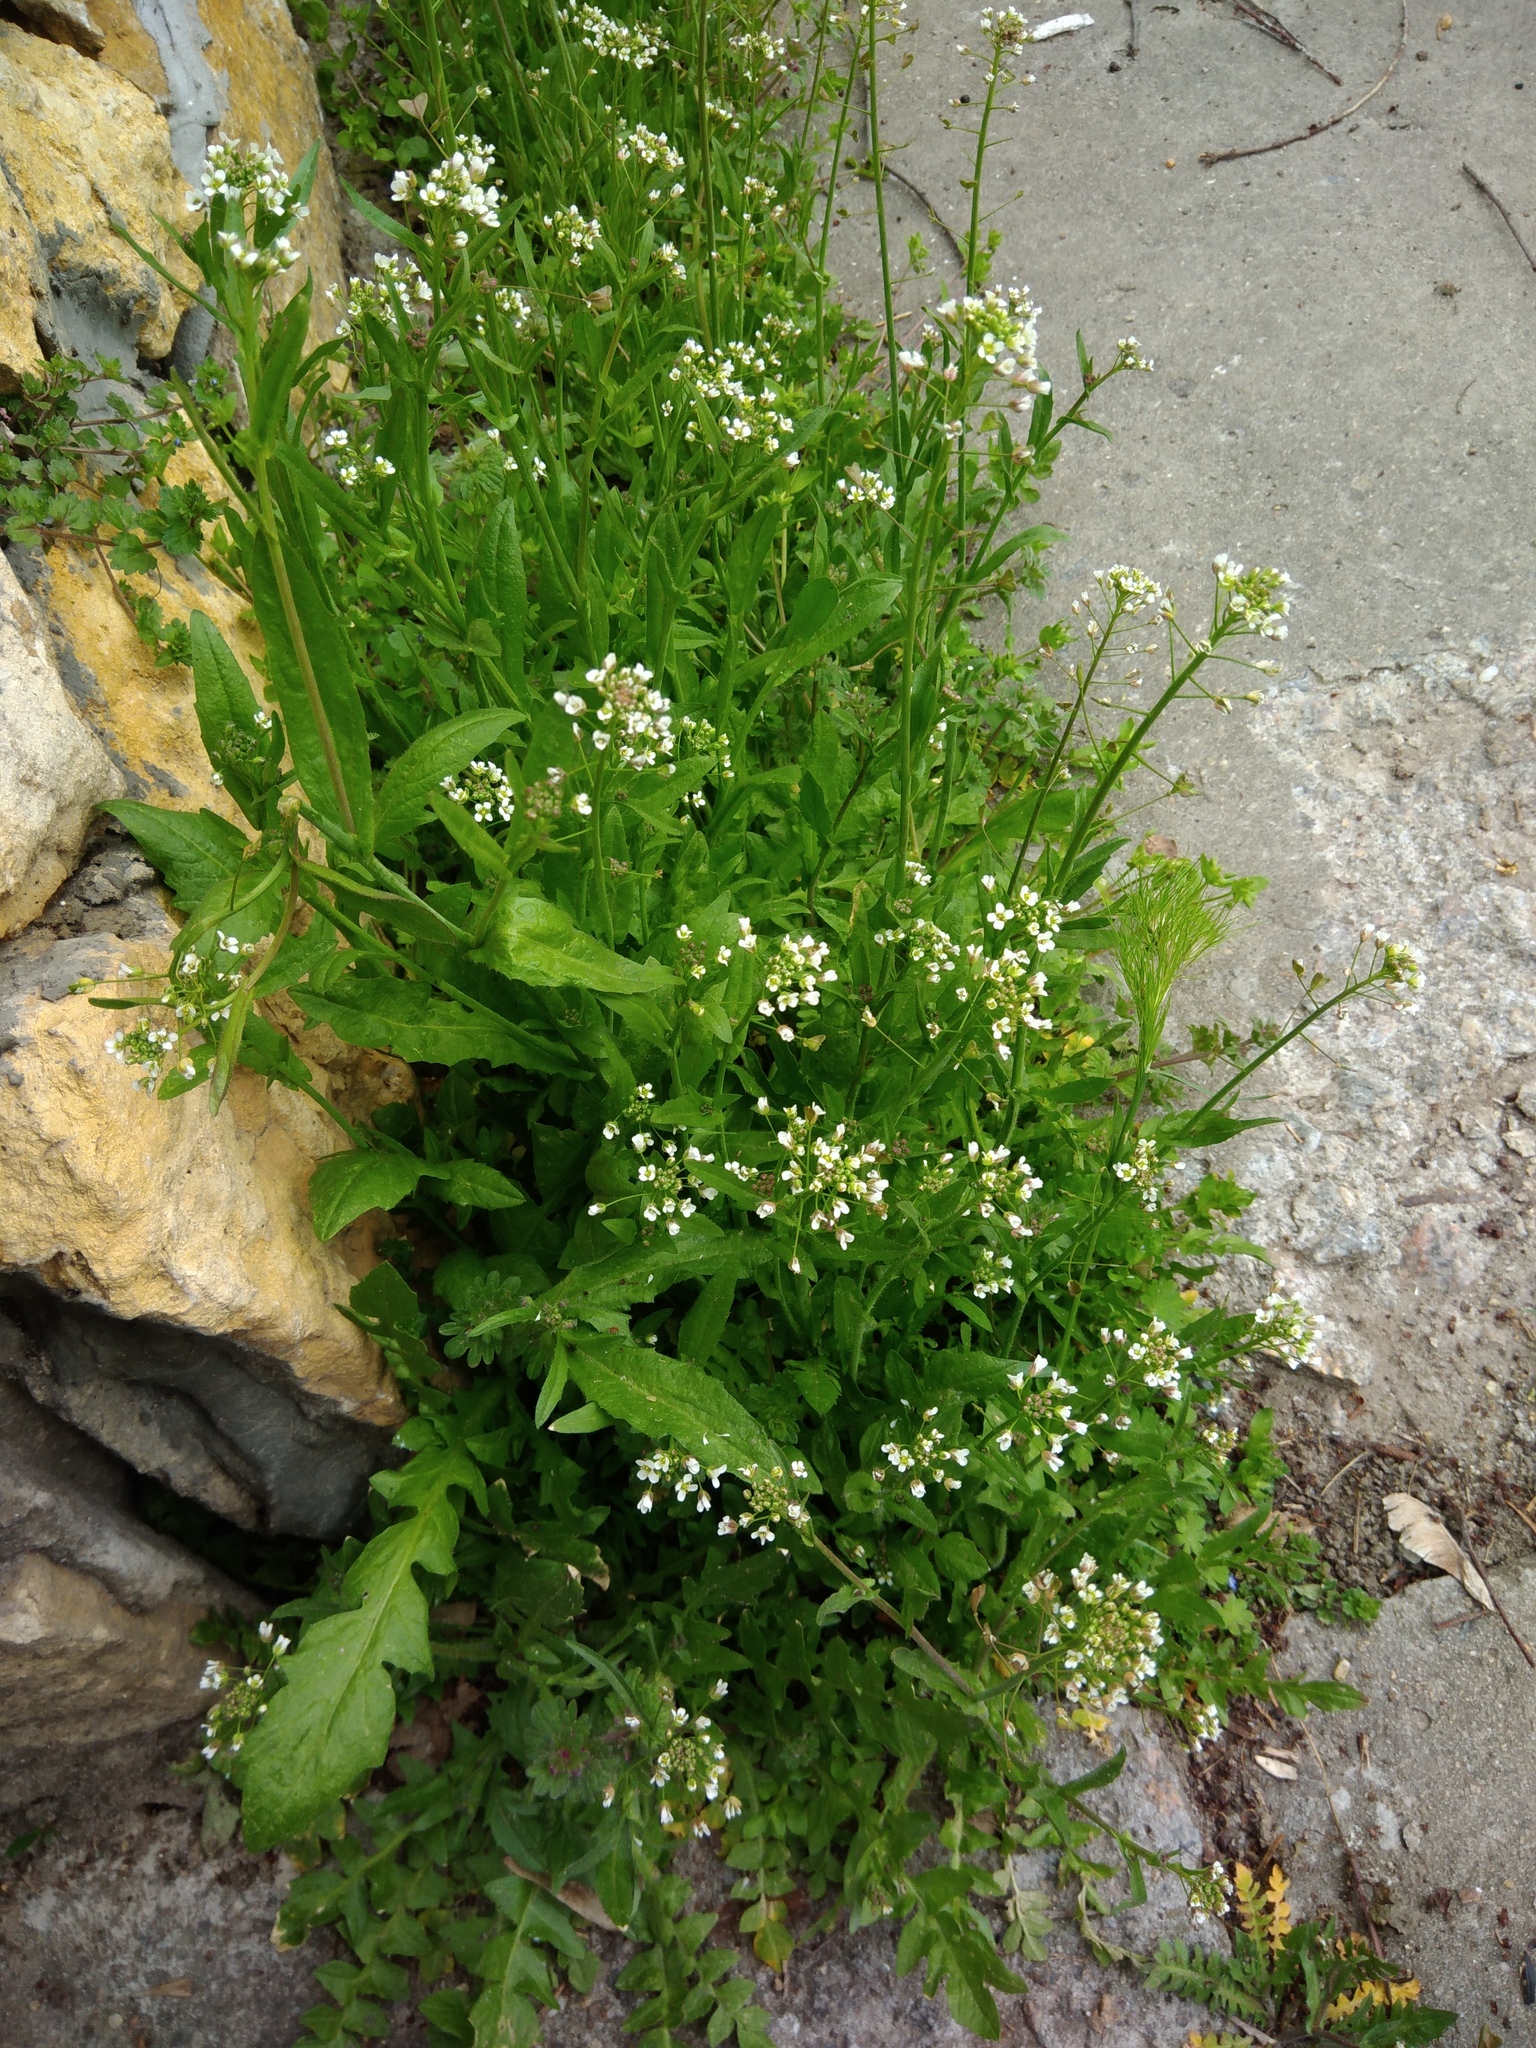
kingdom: Plantae
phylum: Tracheophyta
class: Magnoliopsida
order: Brassicales
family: Brassicaceae
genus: Capsella
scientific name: Capsella bursa-pastoris
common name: Shepherd's purse
